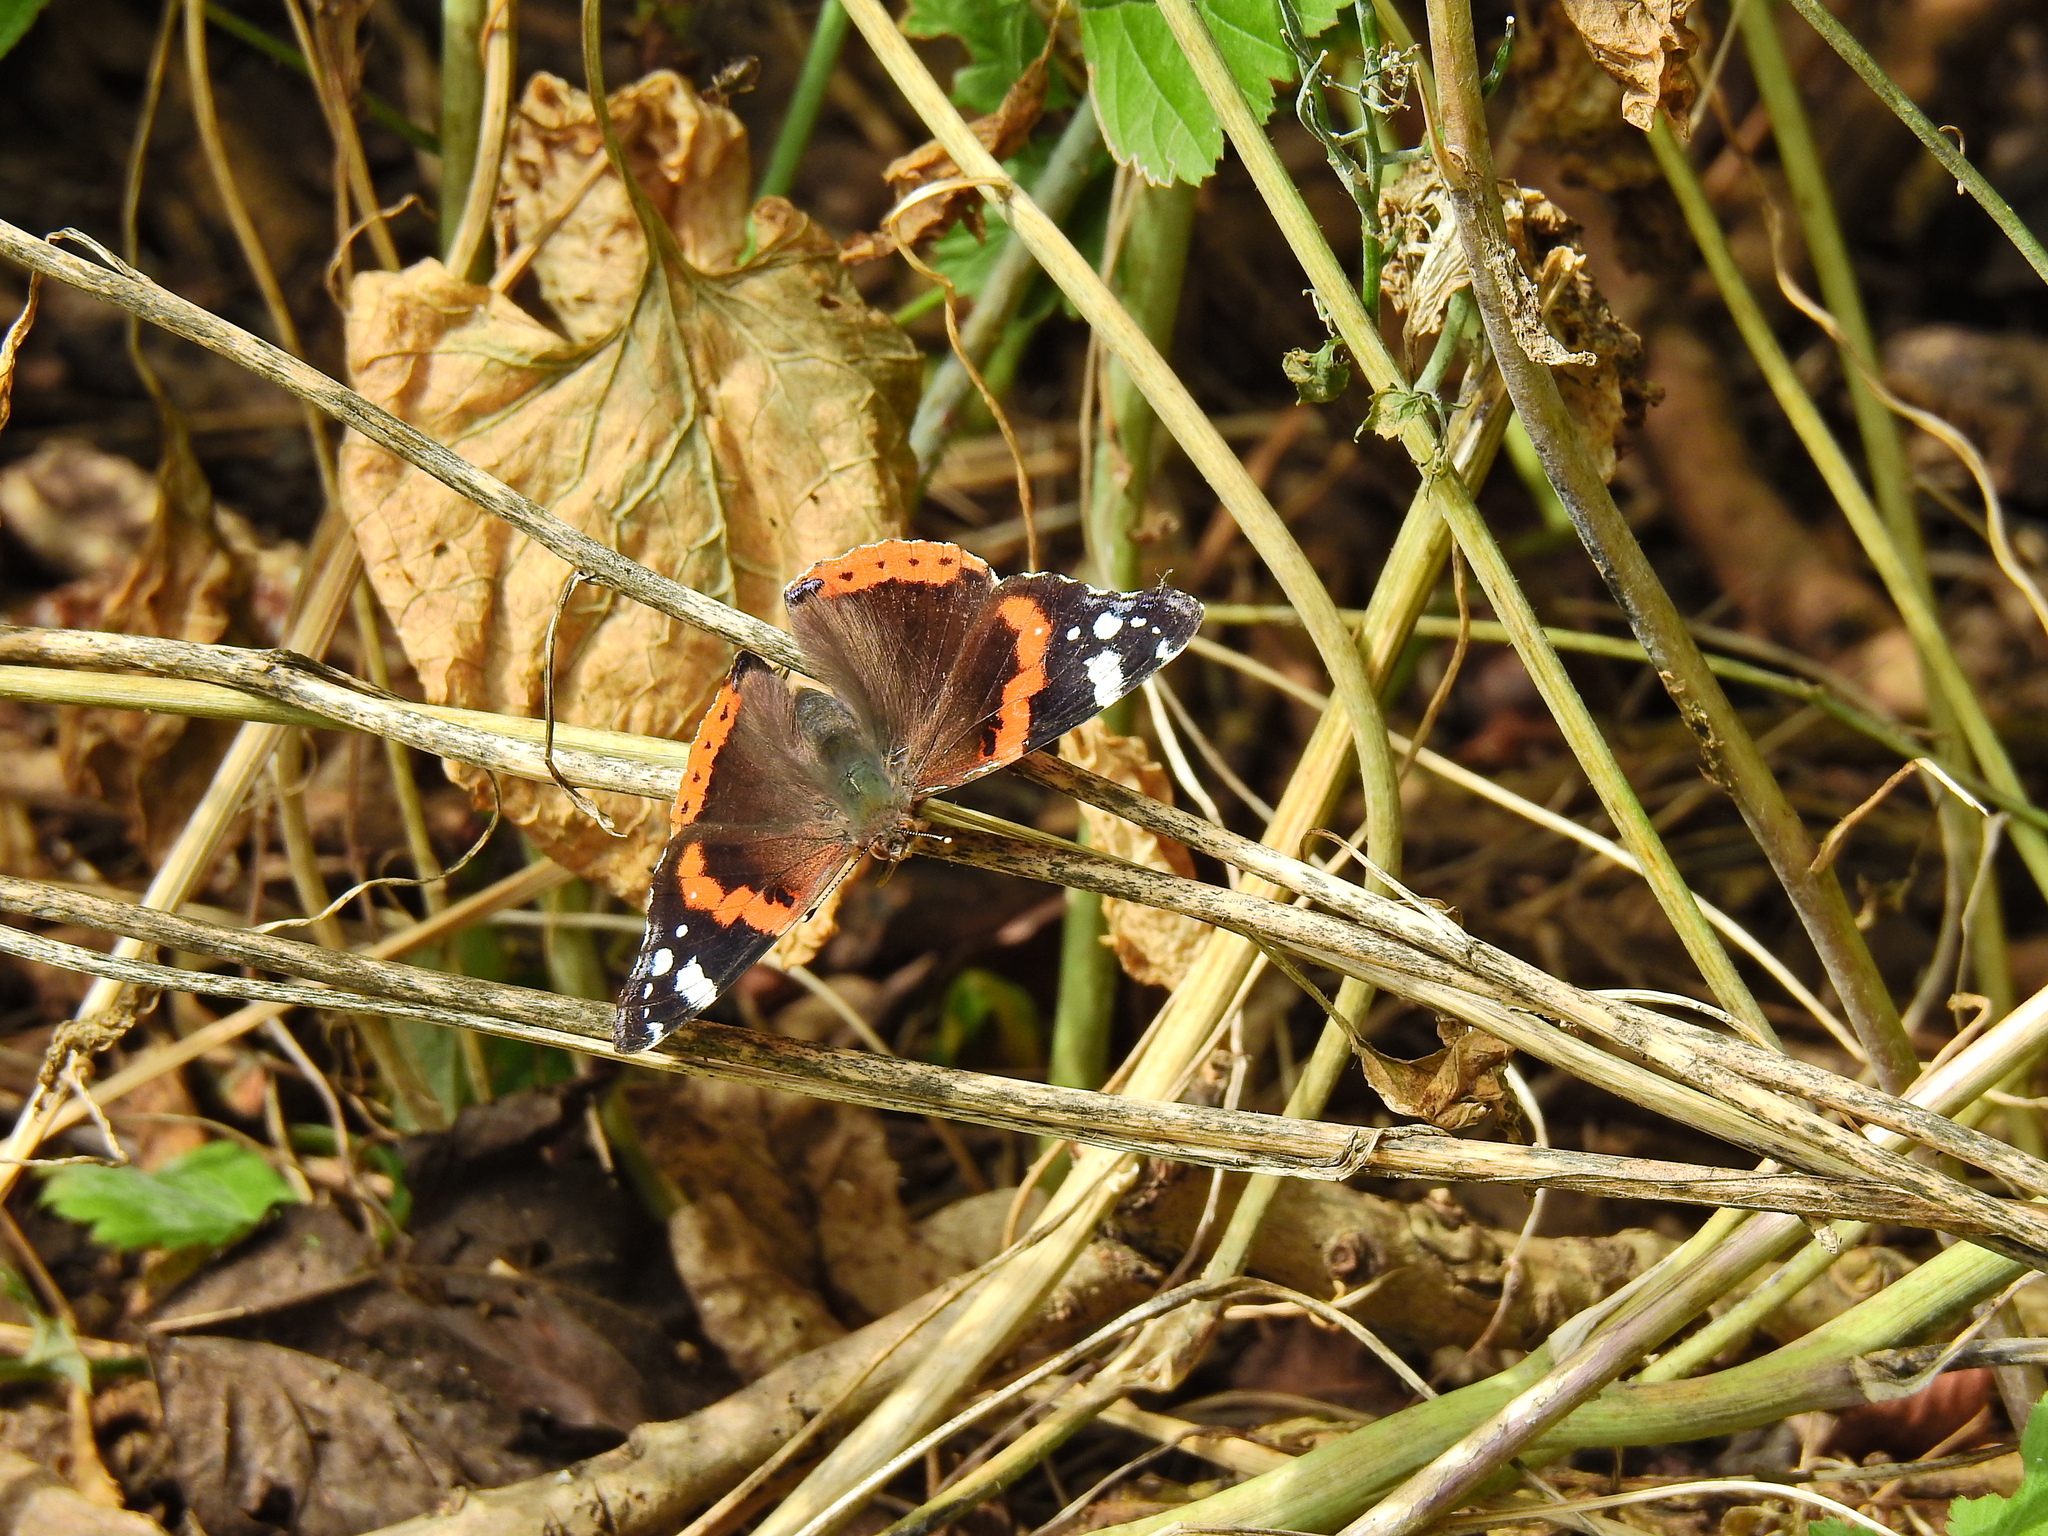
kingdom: Animalia
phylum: Arthropoda
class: Insecta
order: Lepidoptera
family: Nymphalidae
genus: Vanessa
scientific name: Vanessa atalanta
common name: Red admiral
